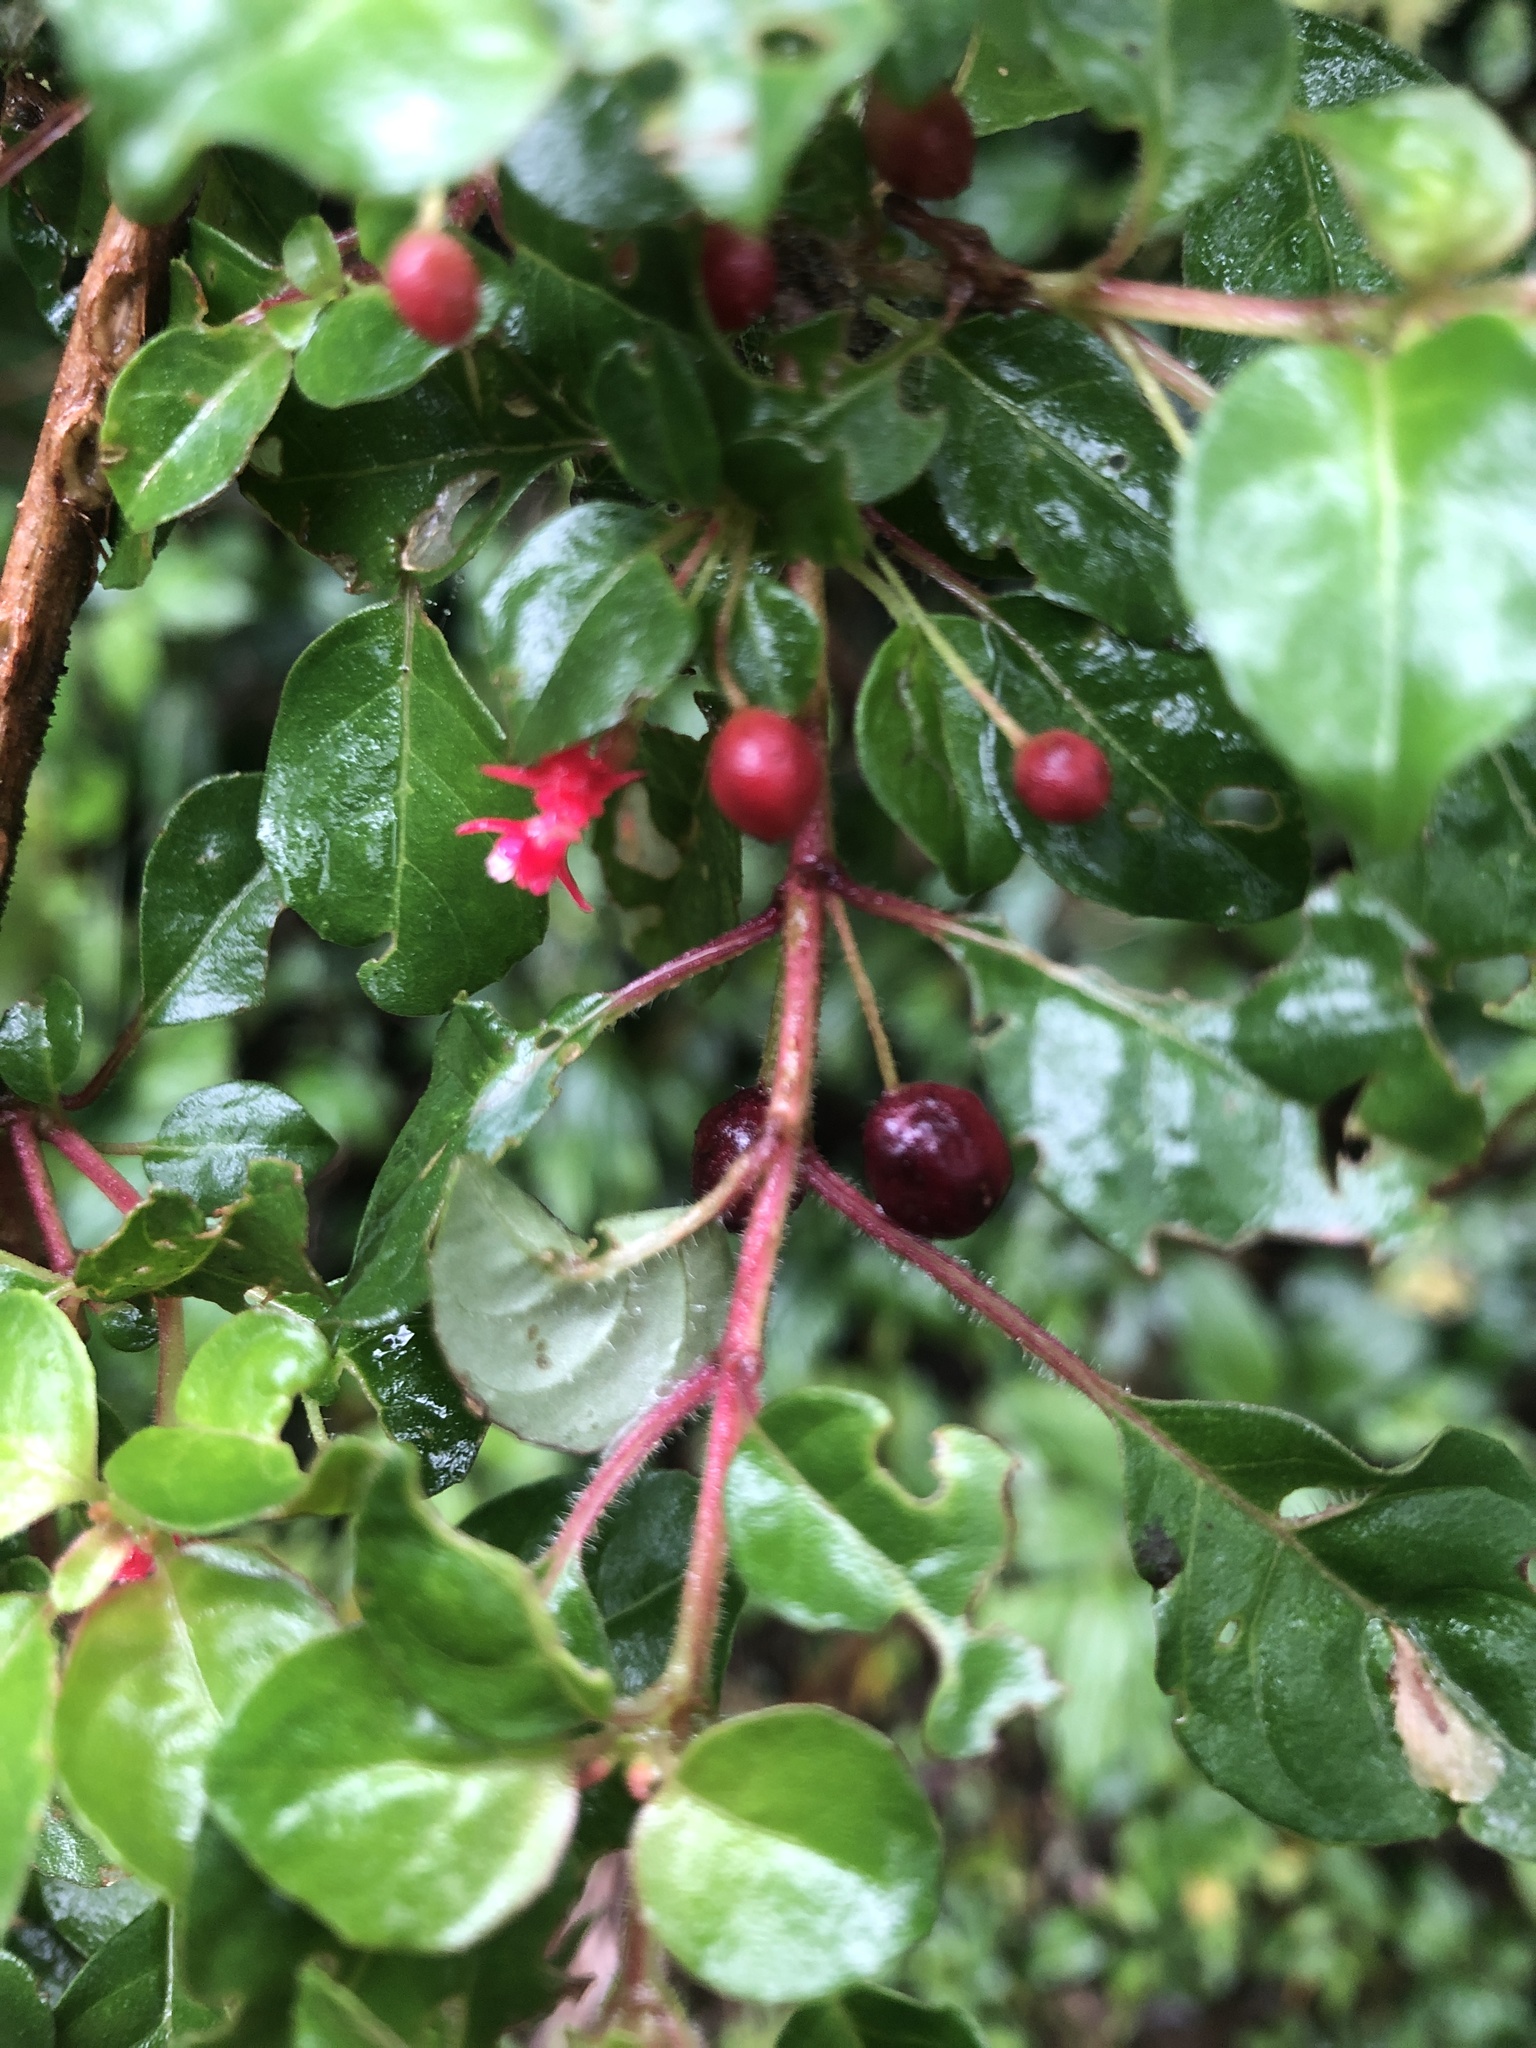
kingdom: Plantae
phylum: Tracheophyta
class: Magnoliopsida
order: Myrtales
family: Onagraceae
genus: Fuchsia
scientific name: Fuchsia microphylla
